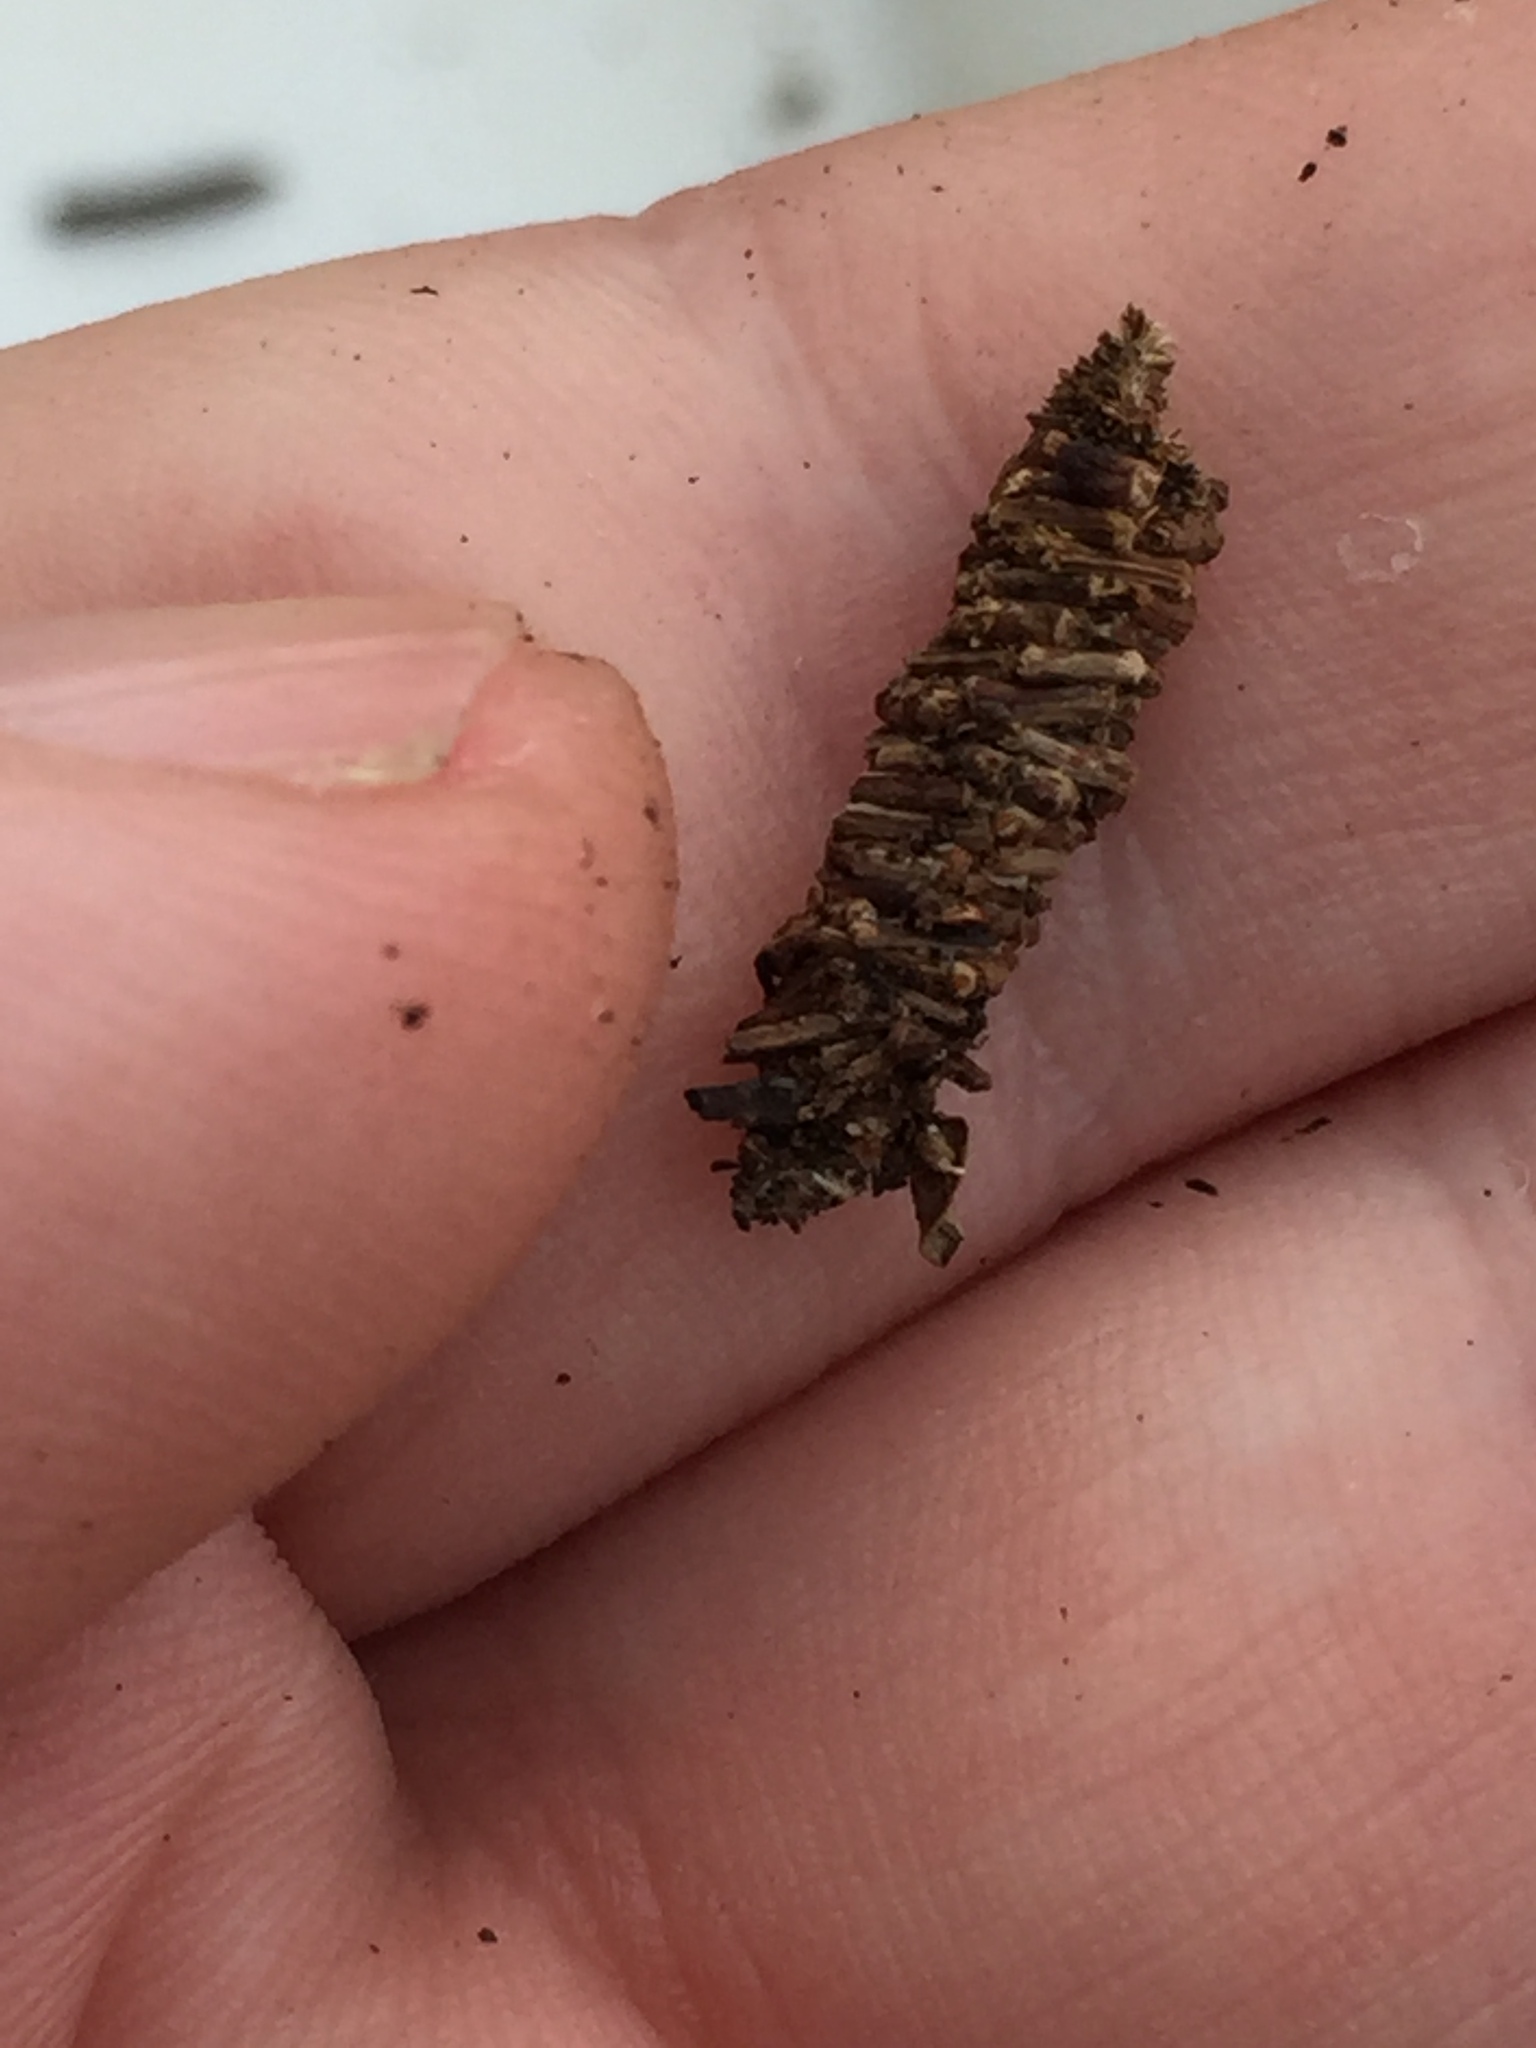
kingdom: Animalia
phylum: Arthropoda
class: Insecta
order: Lepidoptera
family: Psychidae
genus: Lepidoscia
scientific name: Lepidoscia protorna
